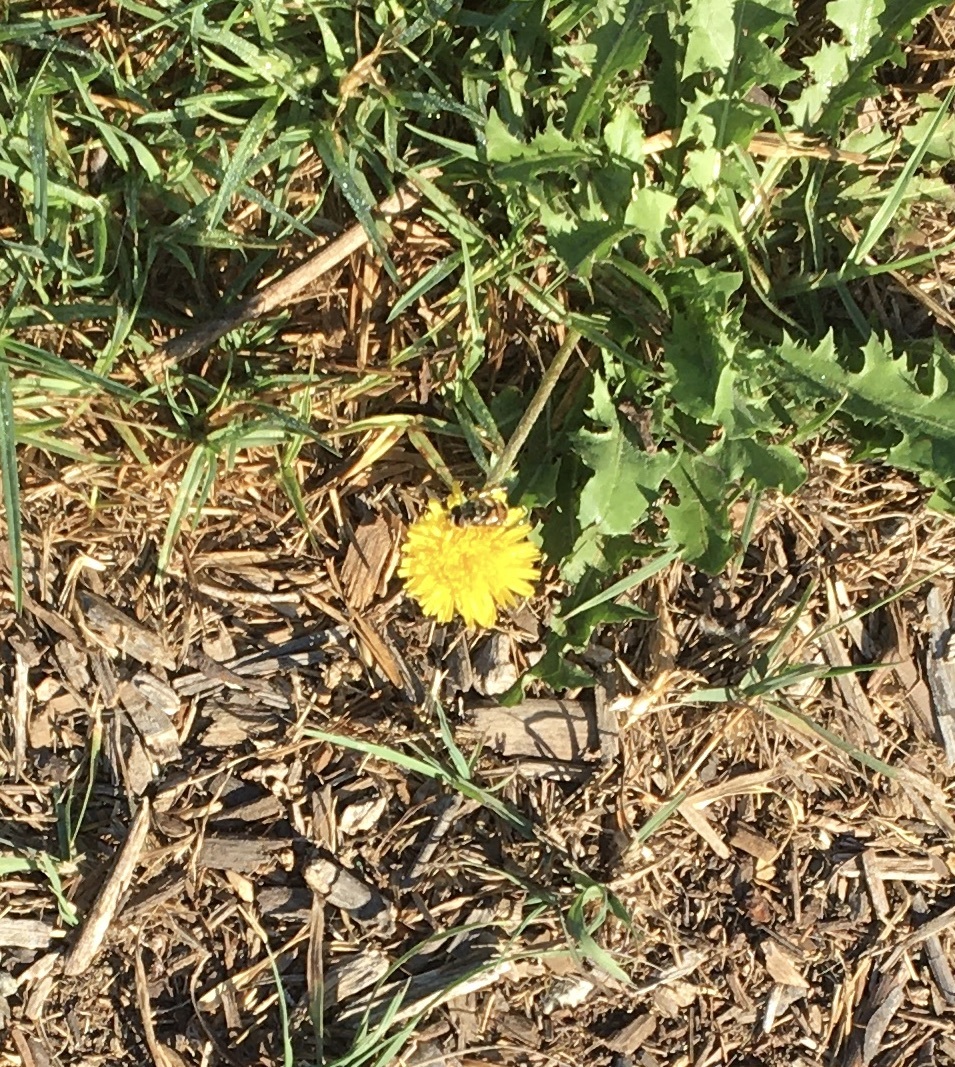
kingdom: Animalia
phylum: Arthropoda
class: Insecta
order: Diptera
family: Syrphidae
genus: Copestylum
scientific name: Copestylum avidum
